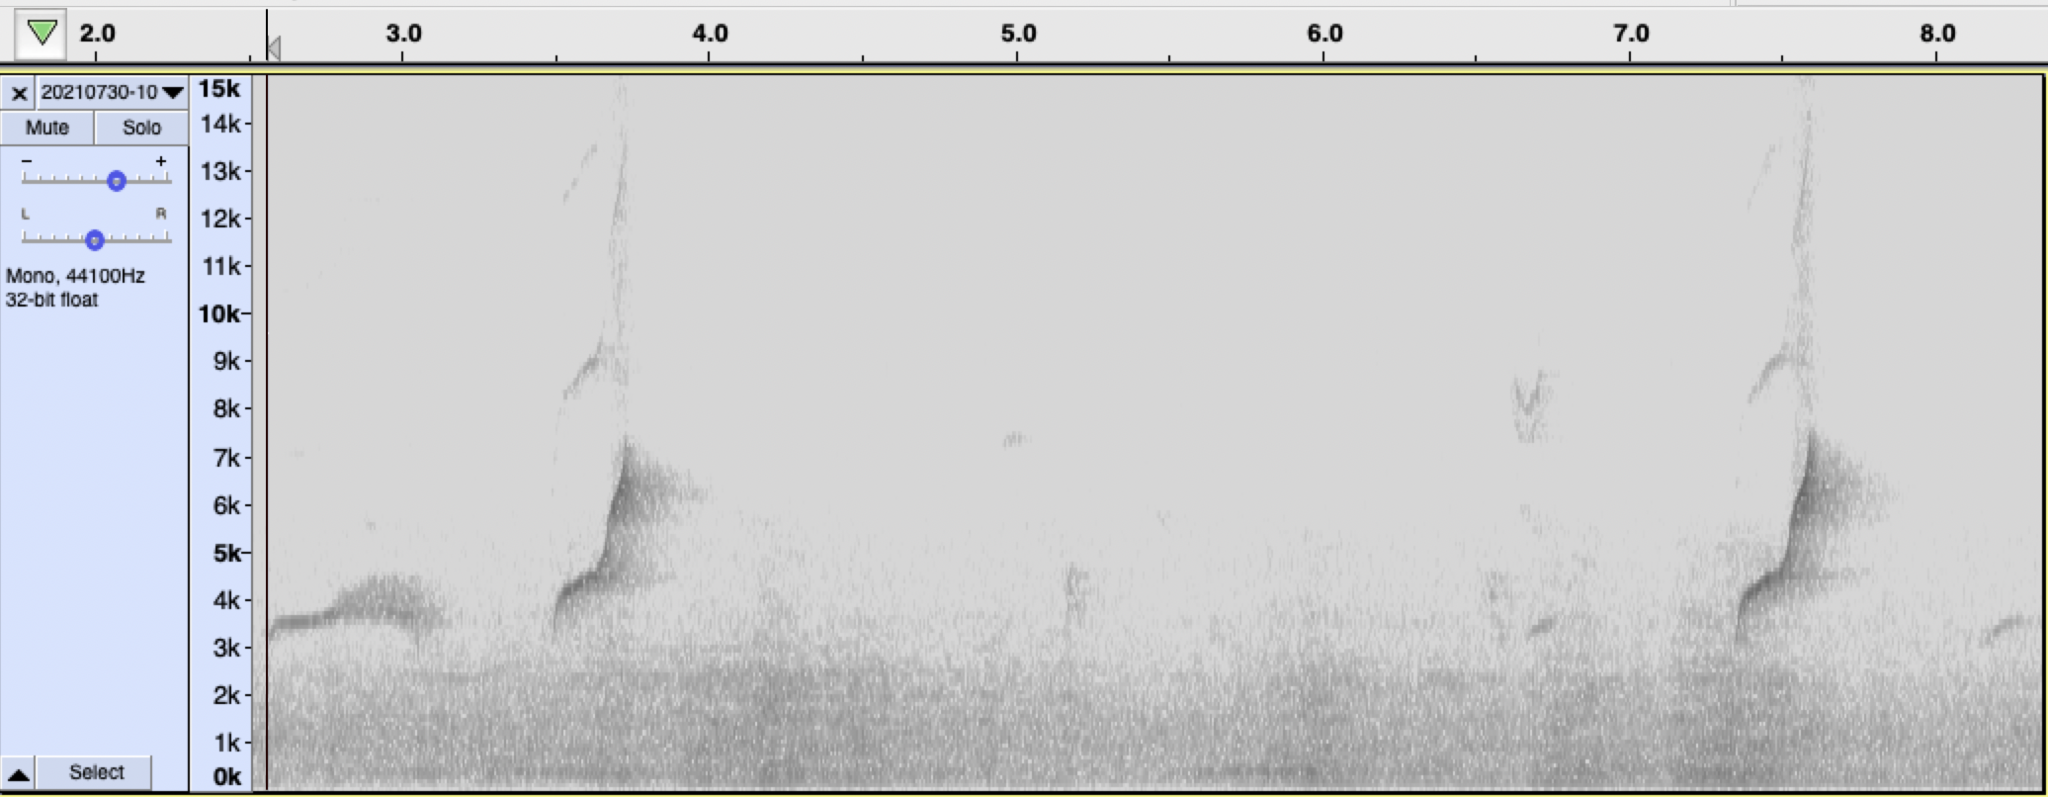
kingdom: Animalia
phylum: Chordata
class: Aves
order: Passeriformes
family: Tyrannidae
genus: Empidonax
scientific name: Empidonax difficilis
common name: Pacific-slope flycatcher
